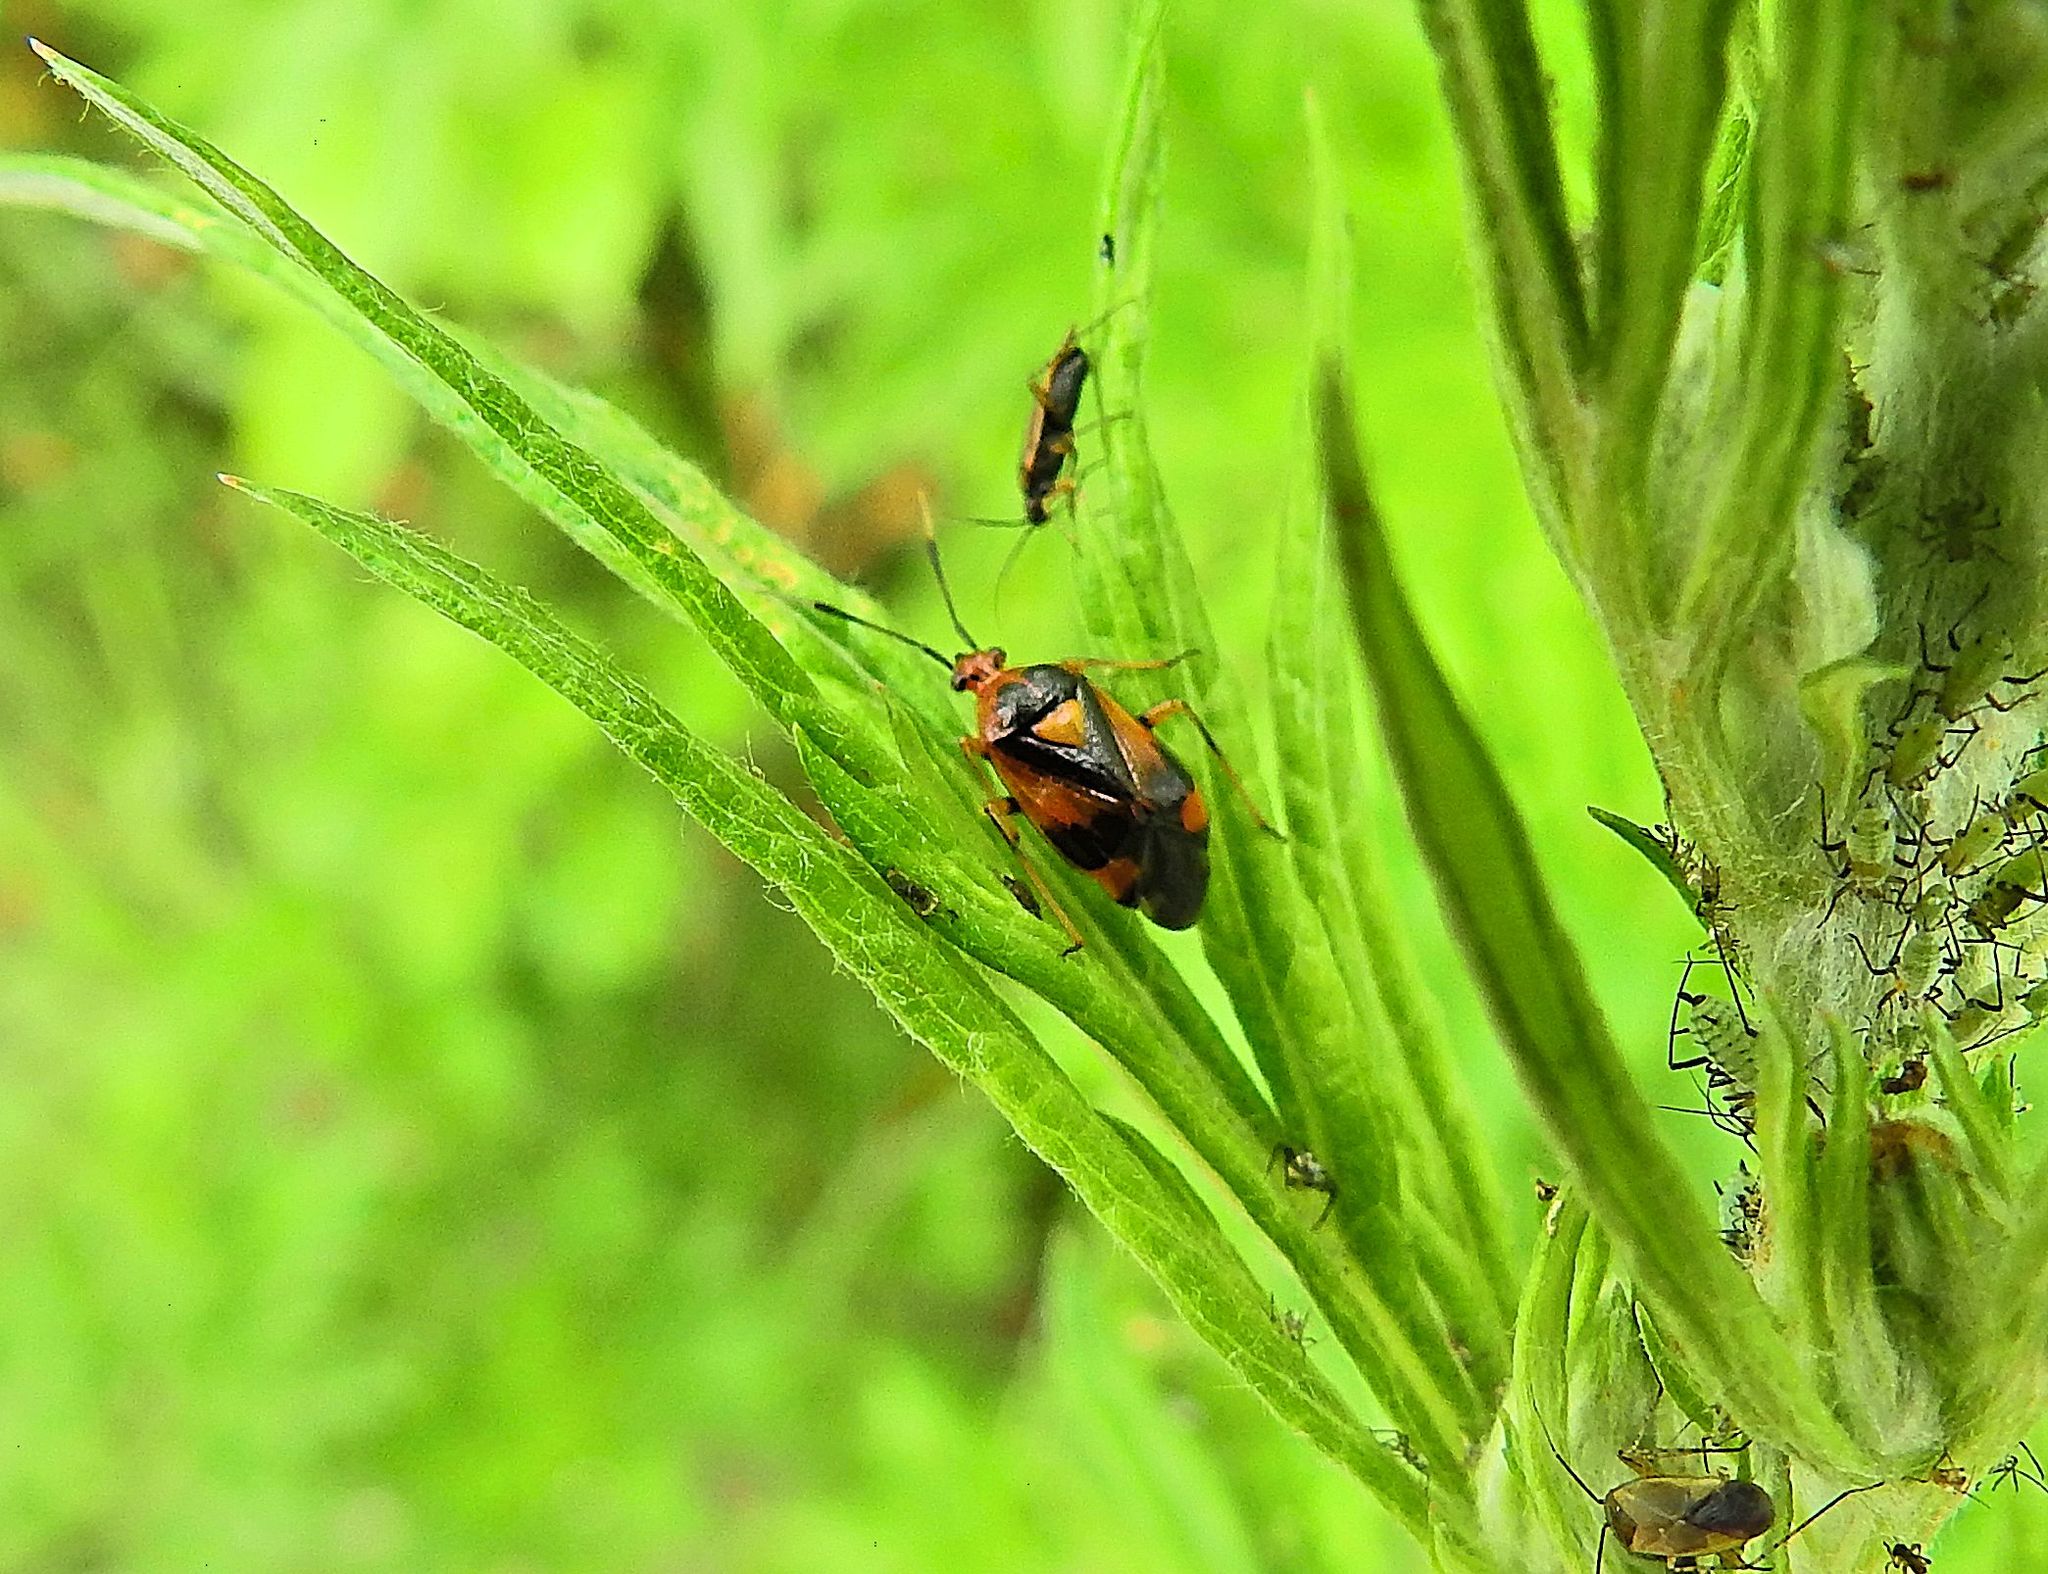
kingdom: Animalia
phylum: Arthropoda
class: Insecta
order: Hemiptera
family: Miridae
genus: Deraeocoris
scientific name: Deraeocoris ruber
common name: Plant bug
